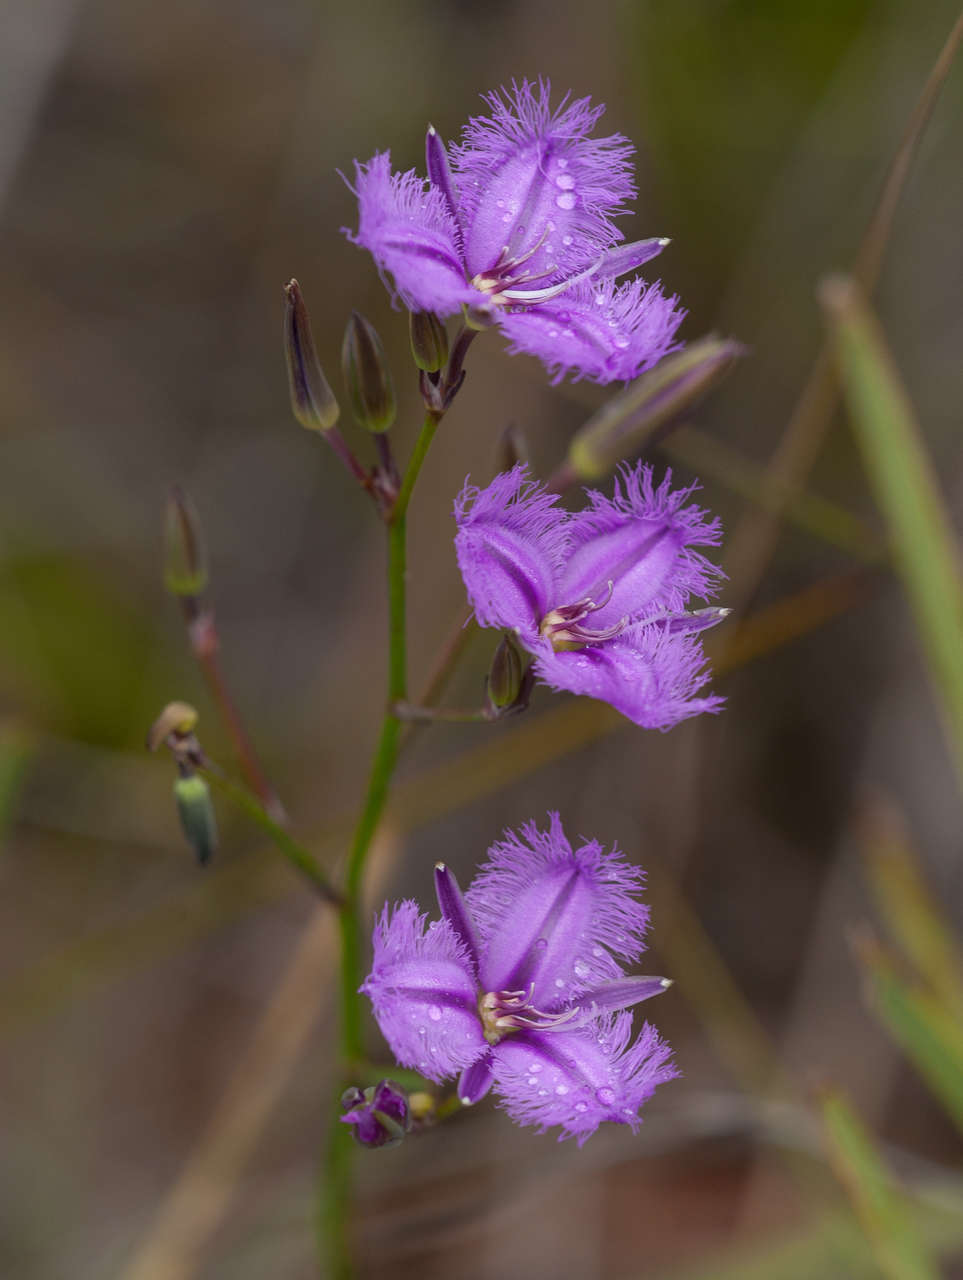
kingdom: Plantae
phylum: Tracheophyta
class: Liliopsida
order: Asparagales
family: Asparagaceae
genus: Thysanotus
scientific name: Thysanotus tuberosus
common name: Common fringed-lily
